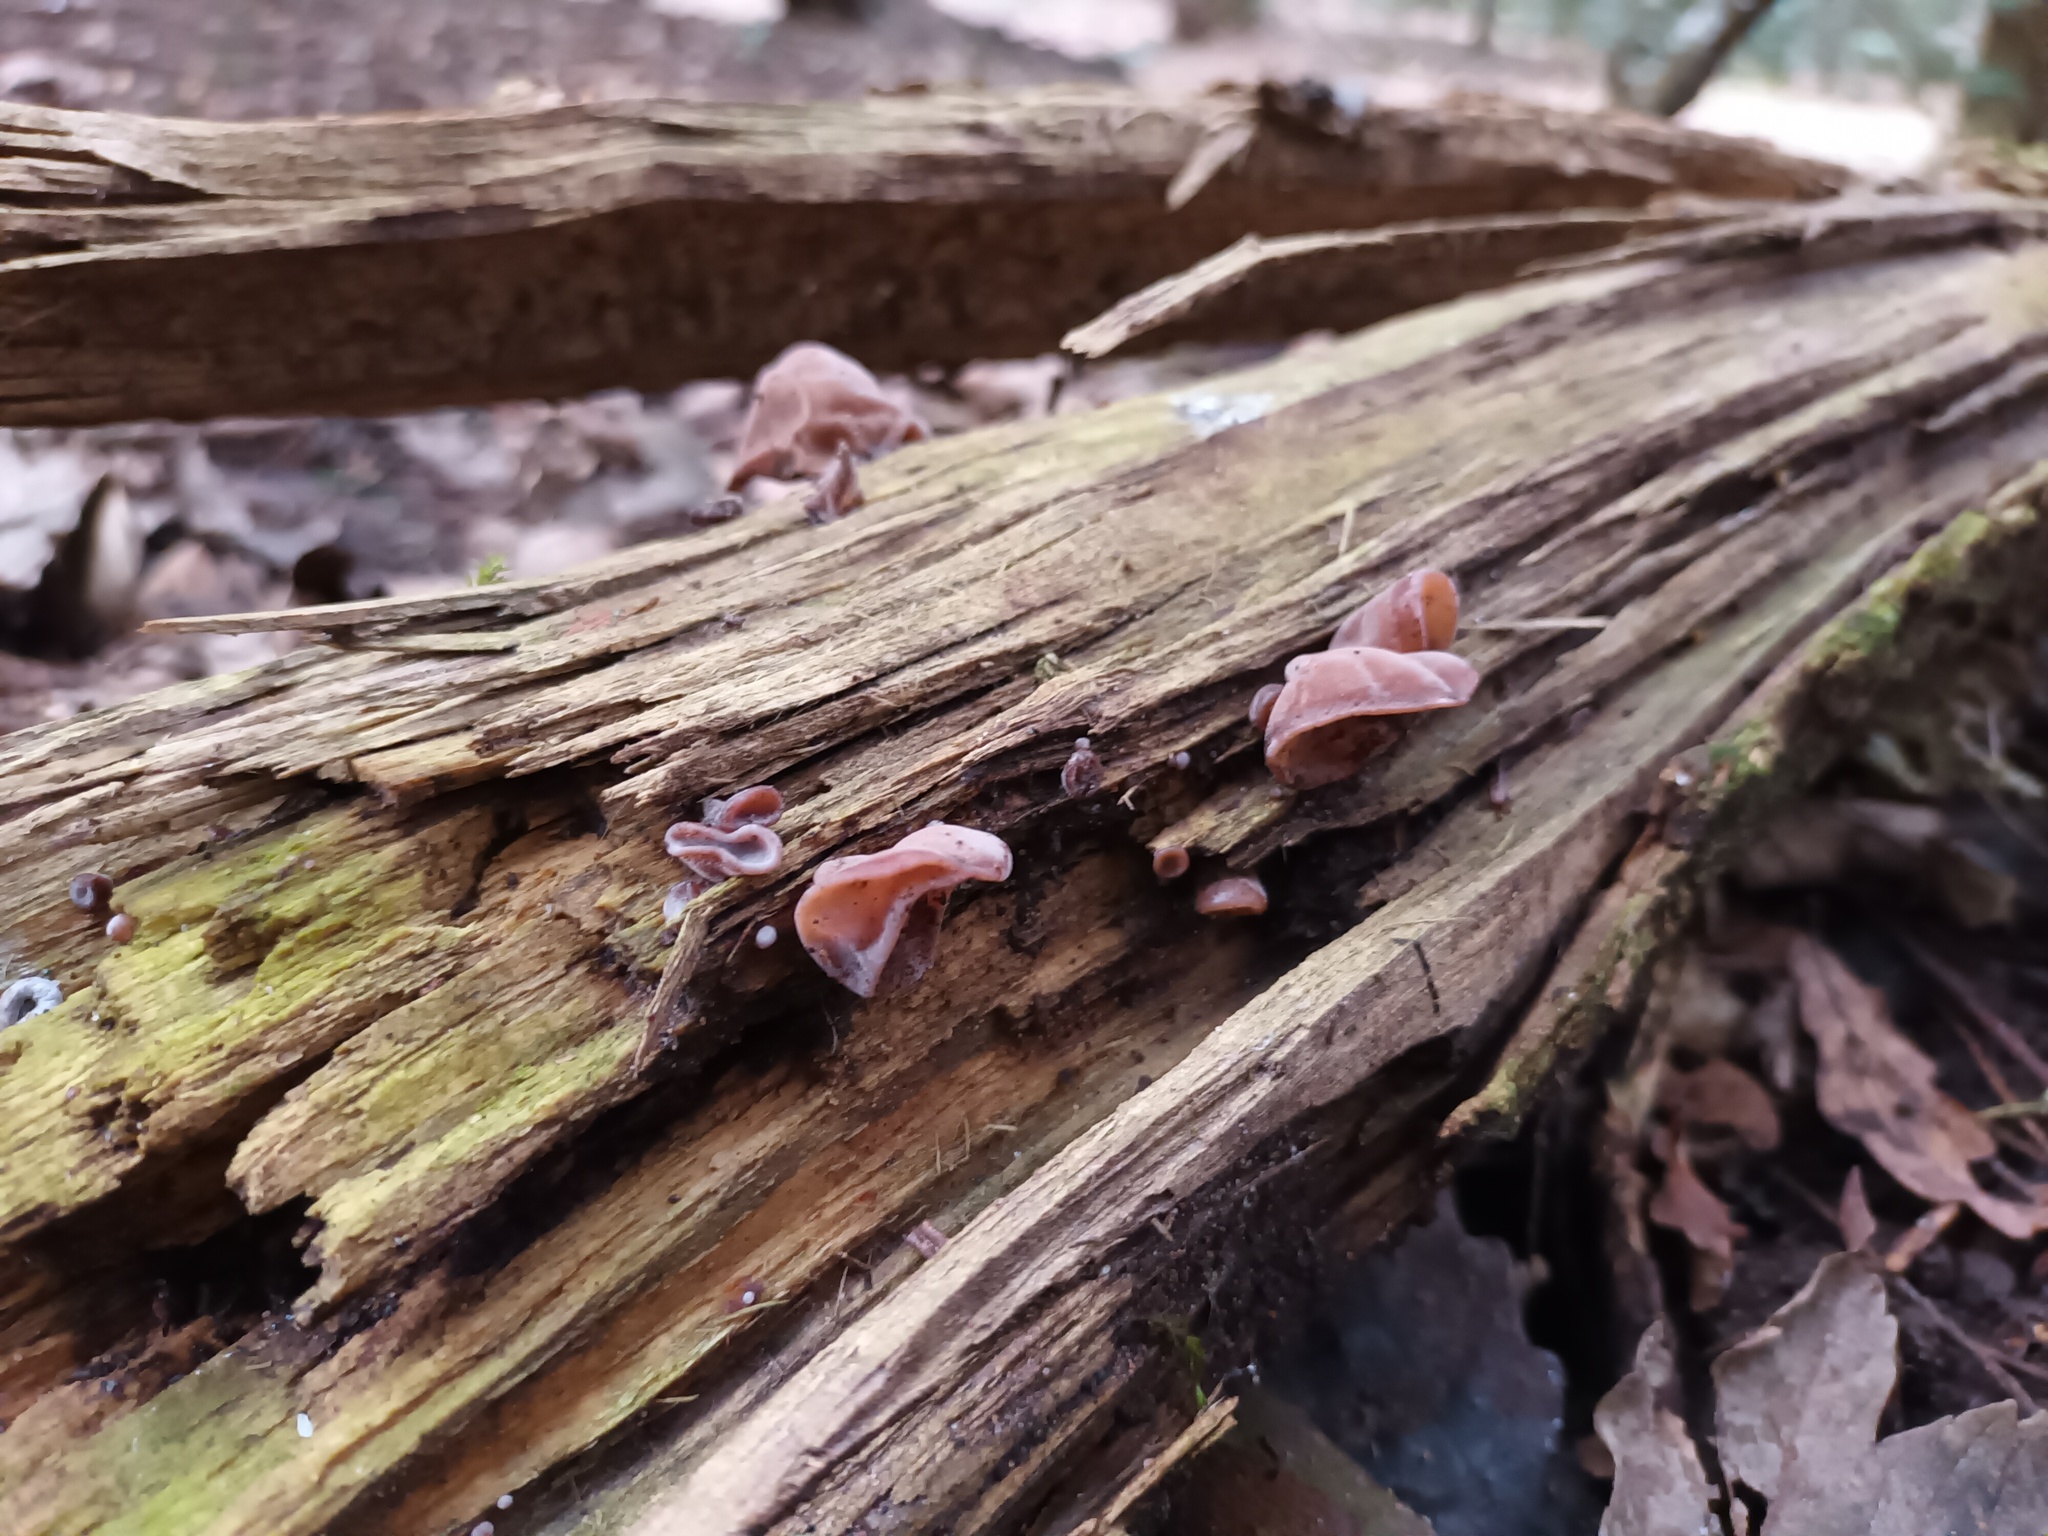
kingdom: Fungi
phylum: Basidiomycota
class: Agaricomycetes
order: Auriculariales
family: Auriculariaceae
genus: Auricularia
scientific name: Auricularia auricula-judae
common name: Jelly ear
